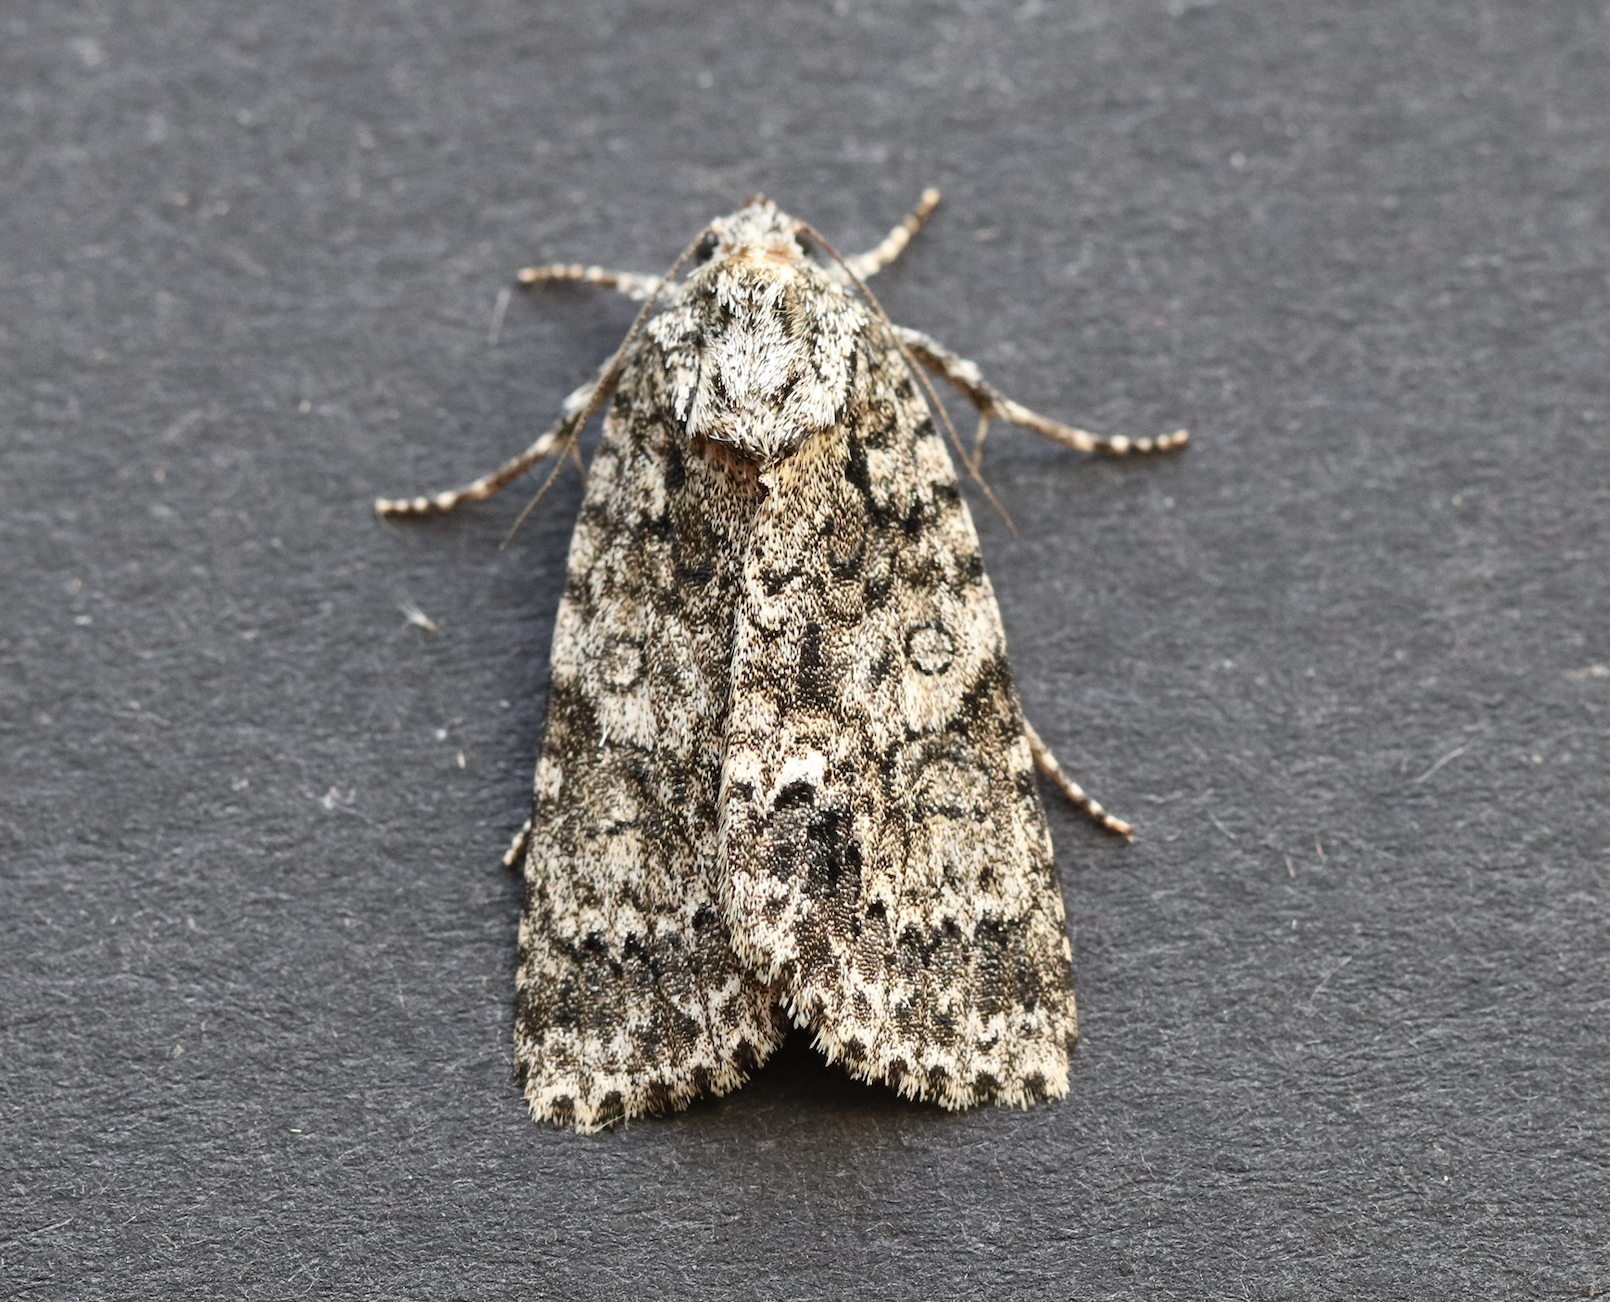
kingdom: Animalia
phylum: Arthropoda
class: Insecta
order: Lepidoptera
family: Noctuidae
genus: Acronicta
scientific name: Acronicta rumicis
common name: Knot grass
